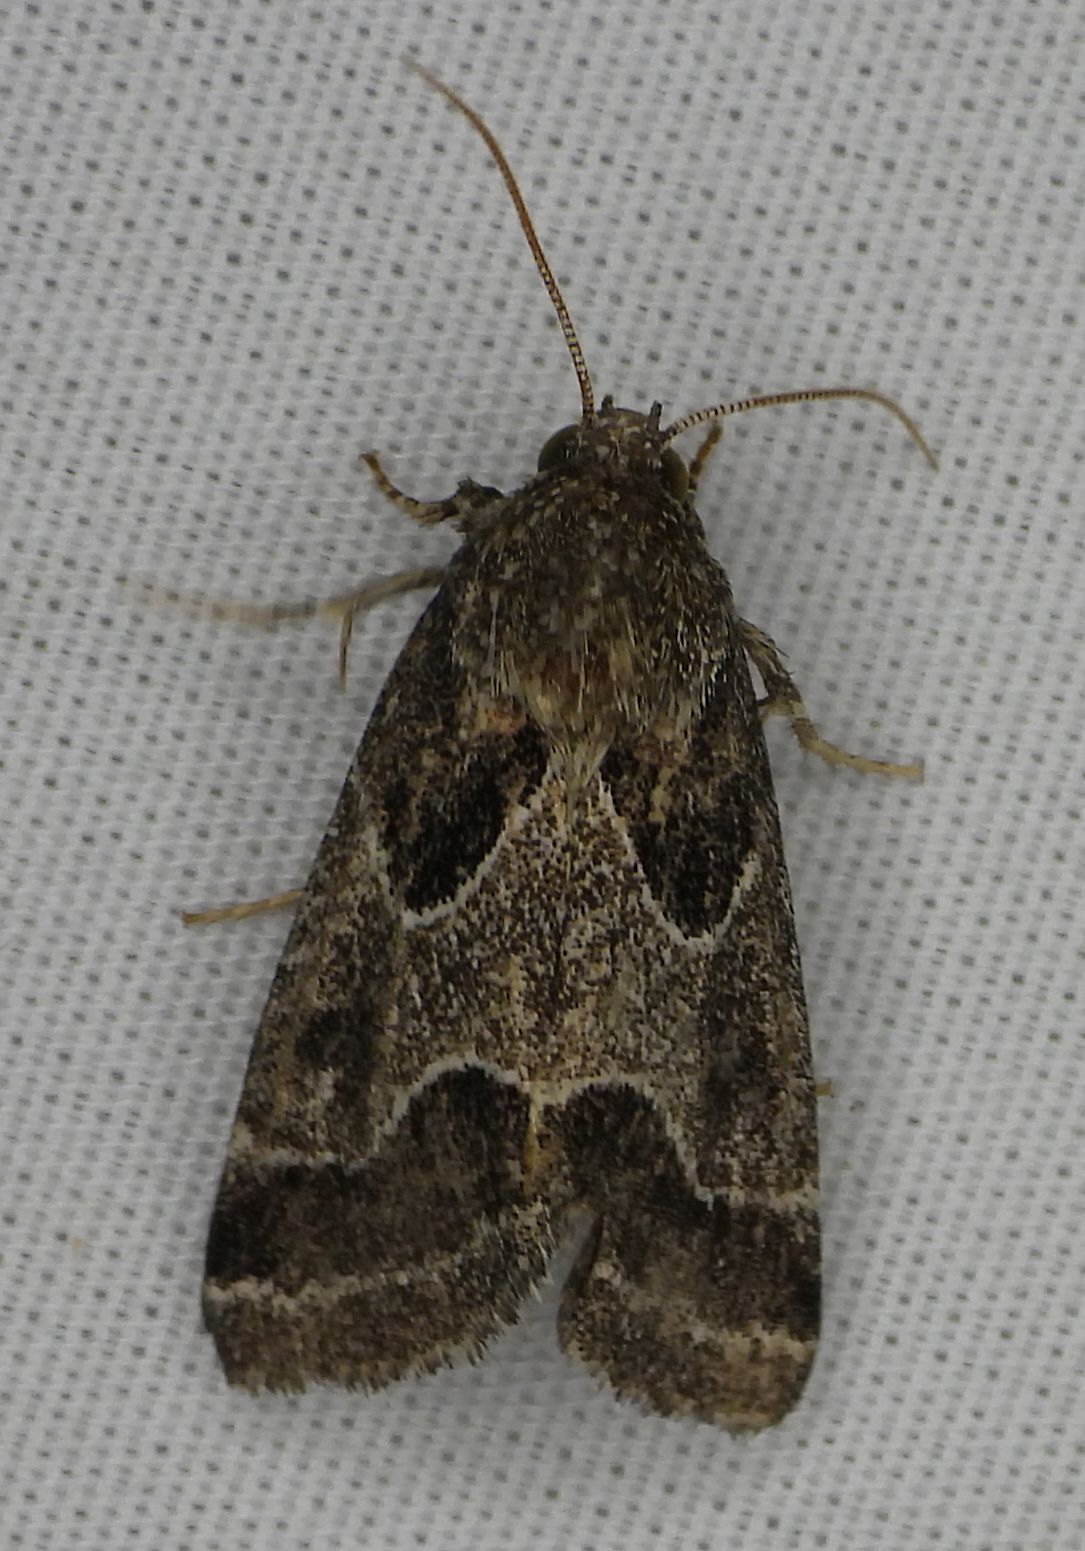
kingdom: Animalia
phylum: Arthropoda
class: Insecta
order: Lepidoptera
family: Noctuidae
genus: Schinia
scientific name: Schinia rivulosa
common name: Scarce meal-moth
